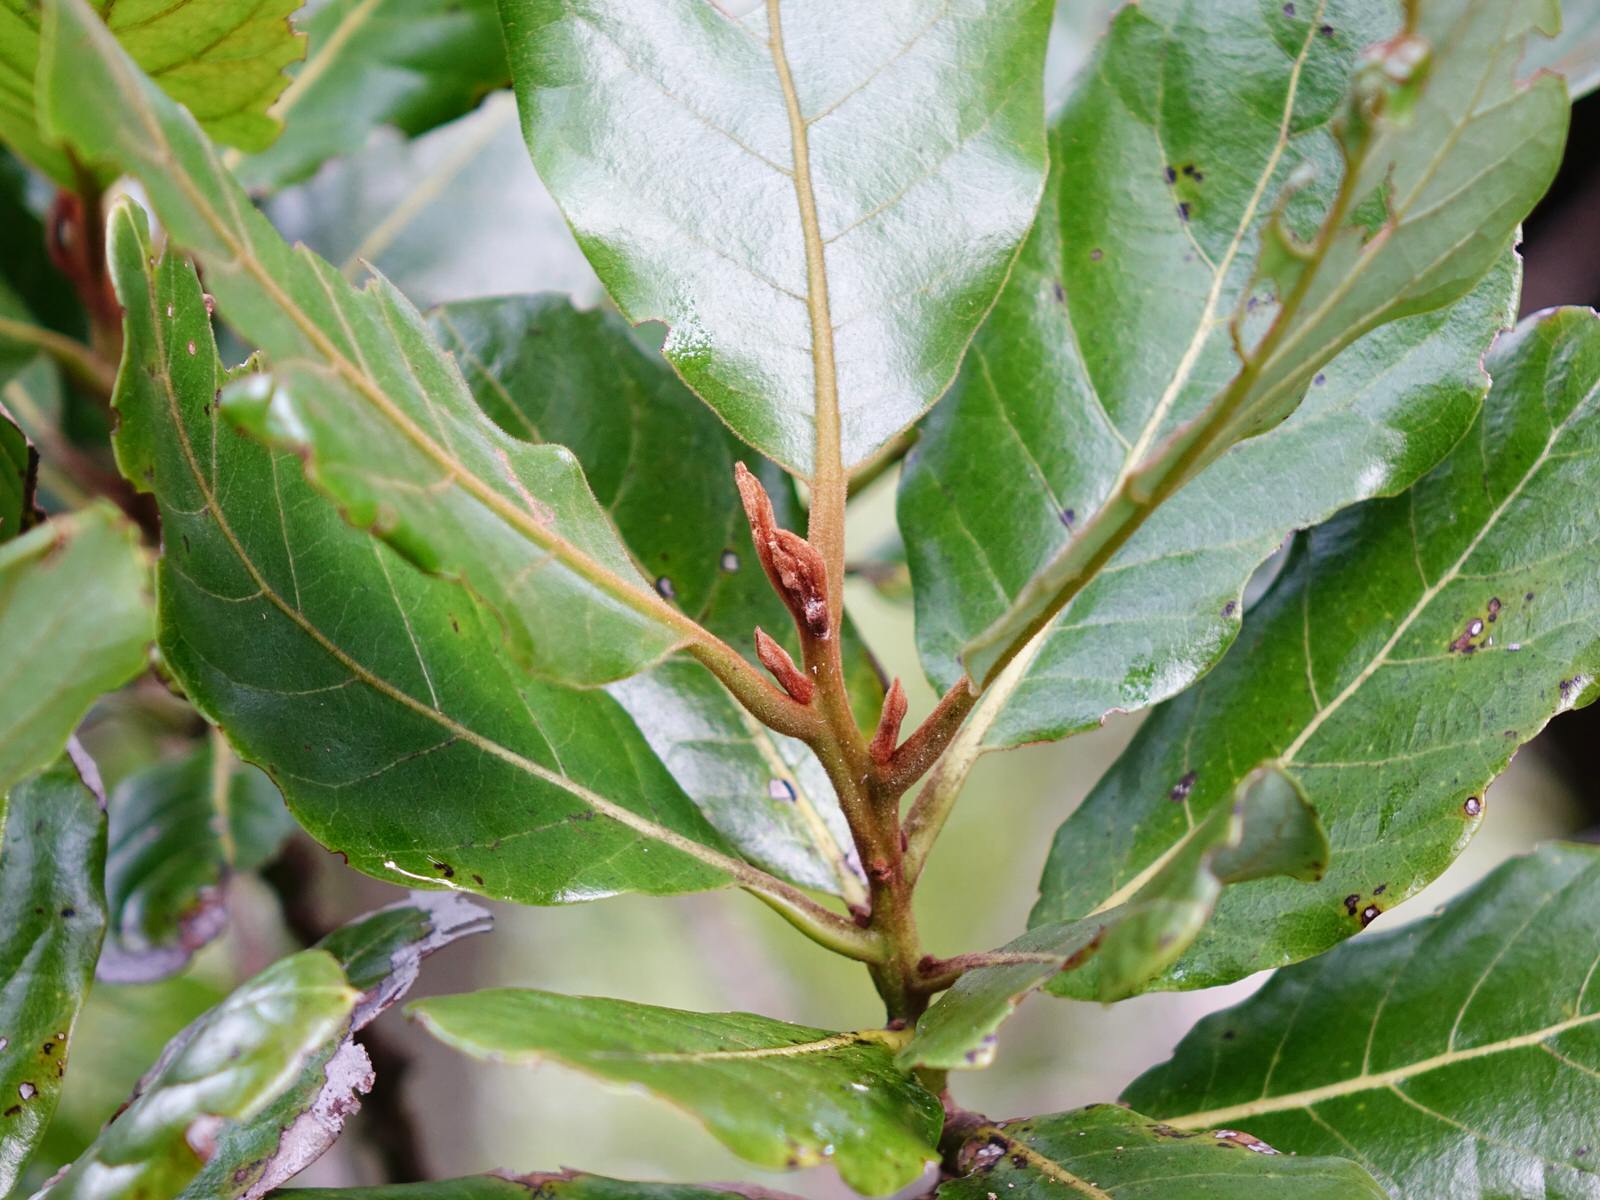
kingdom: Plantae
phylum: Tracheophyta
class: Magnoliopsida
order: Laurales
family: Lauraceae
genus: Beilschmiedia
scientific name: Beilschmiedia tarairi
